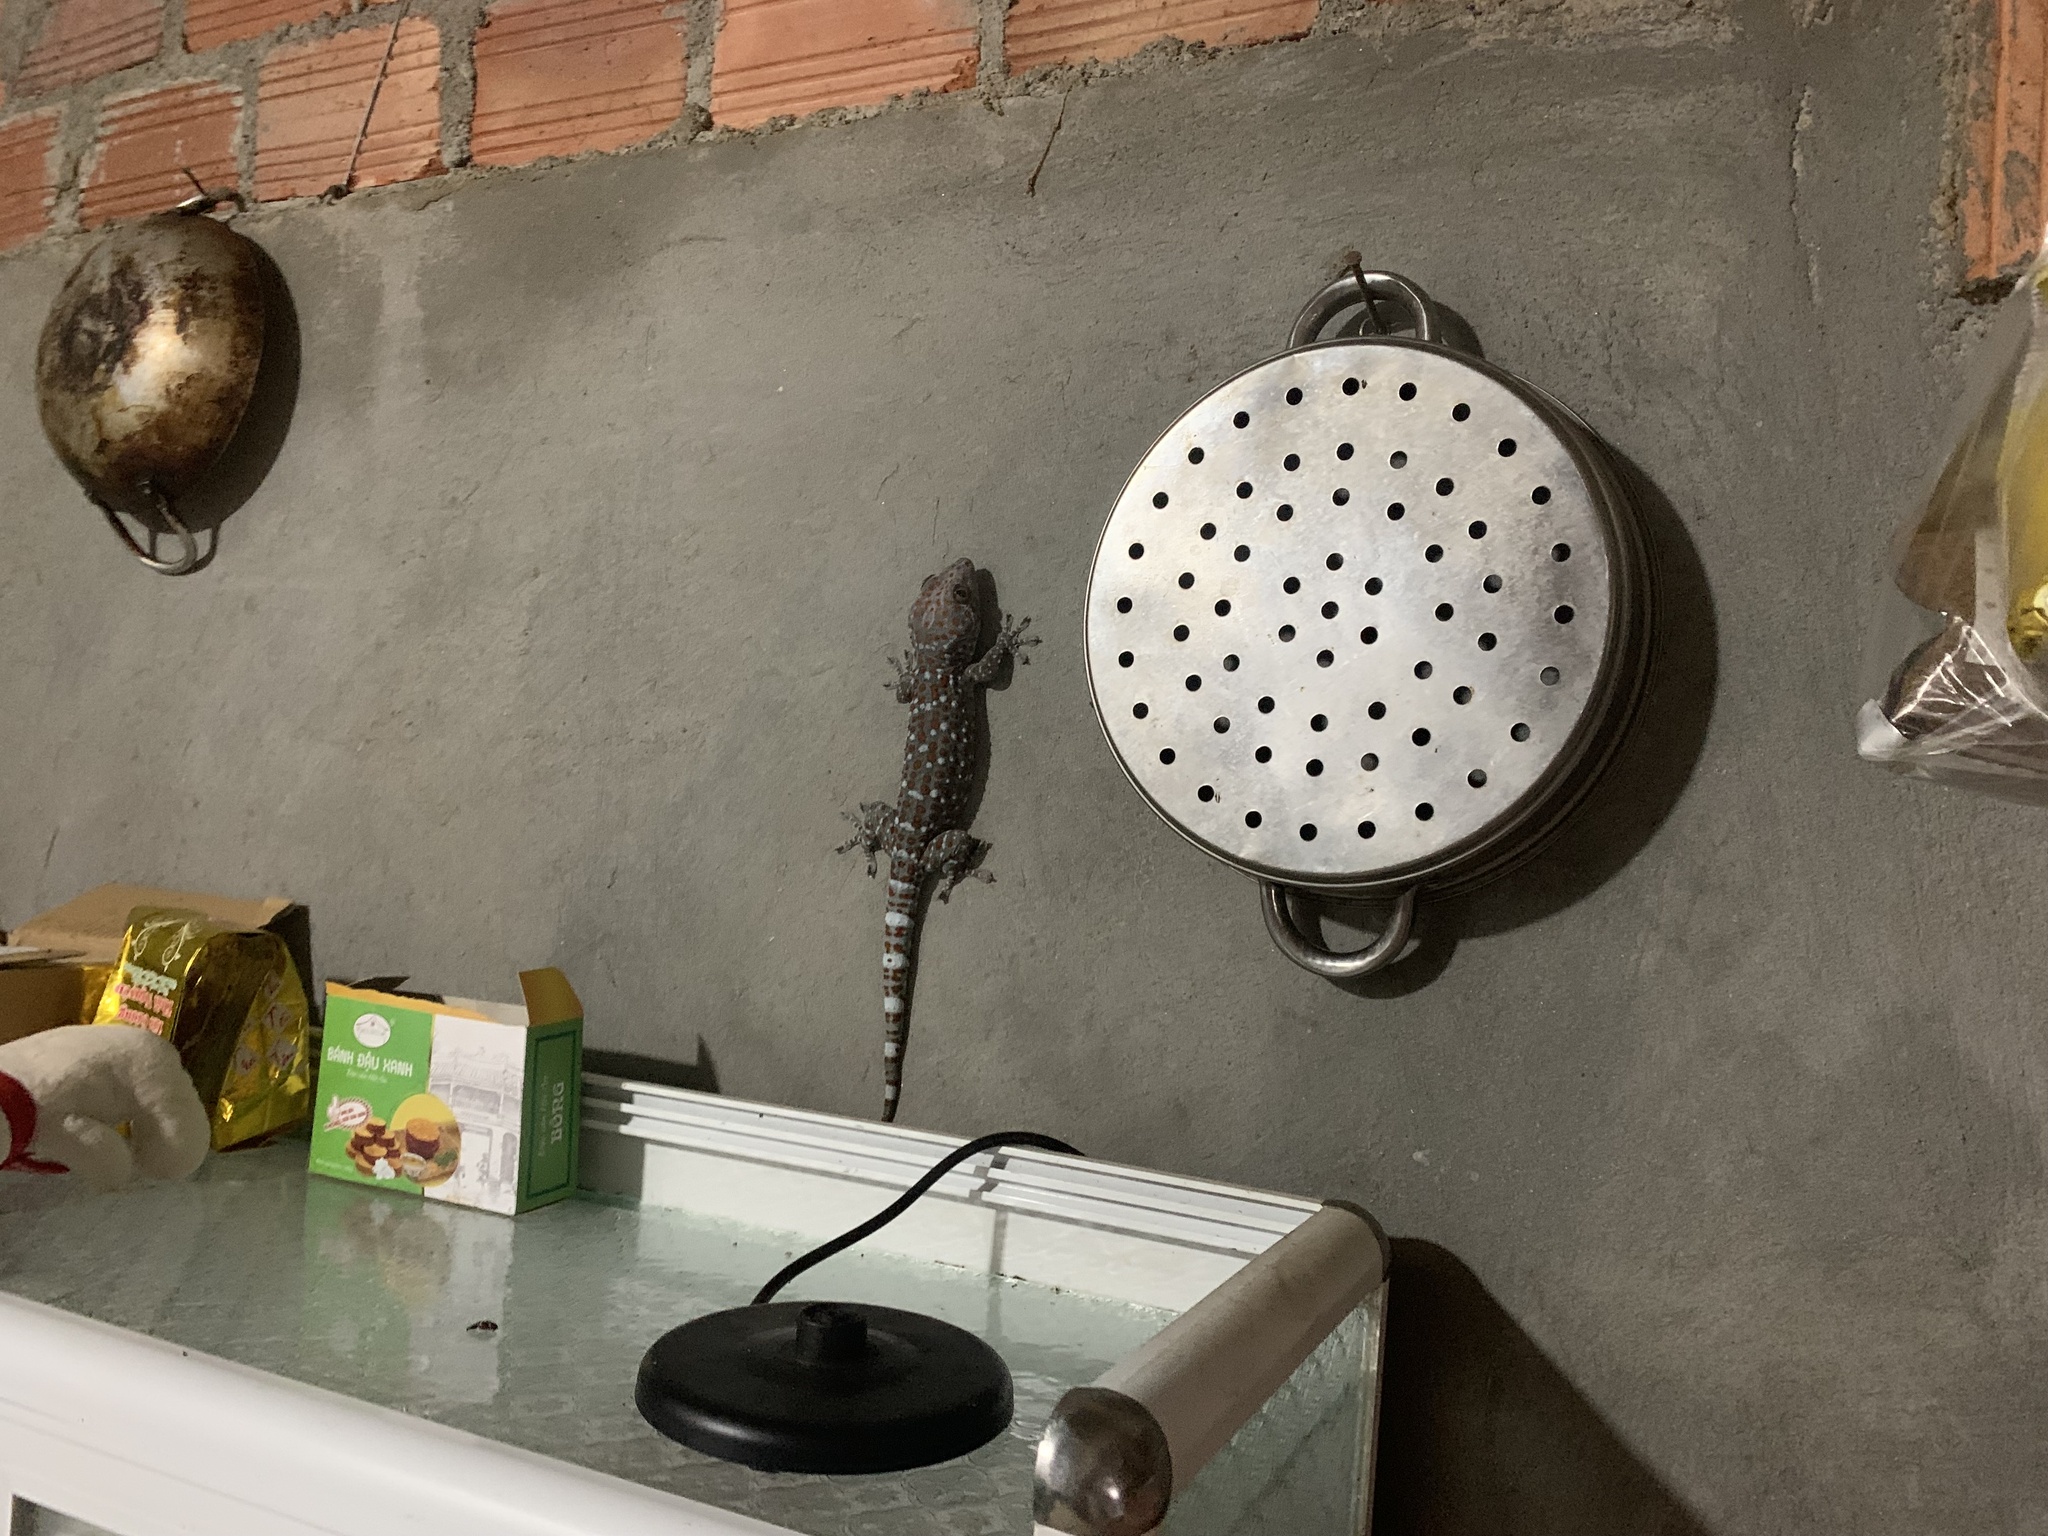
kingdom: Animalia
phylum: Chordata
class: Squamata
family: Gekkonidae
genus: Gekko
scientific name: Gekko gecko
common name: Tokay gecko
